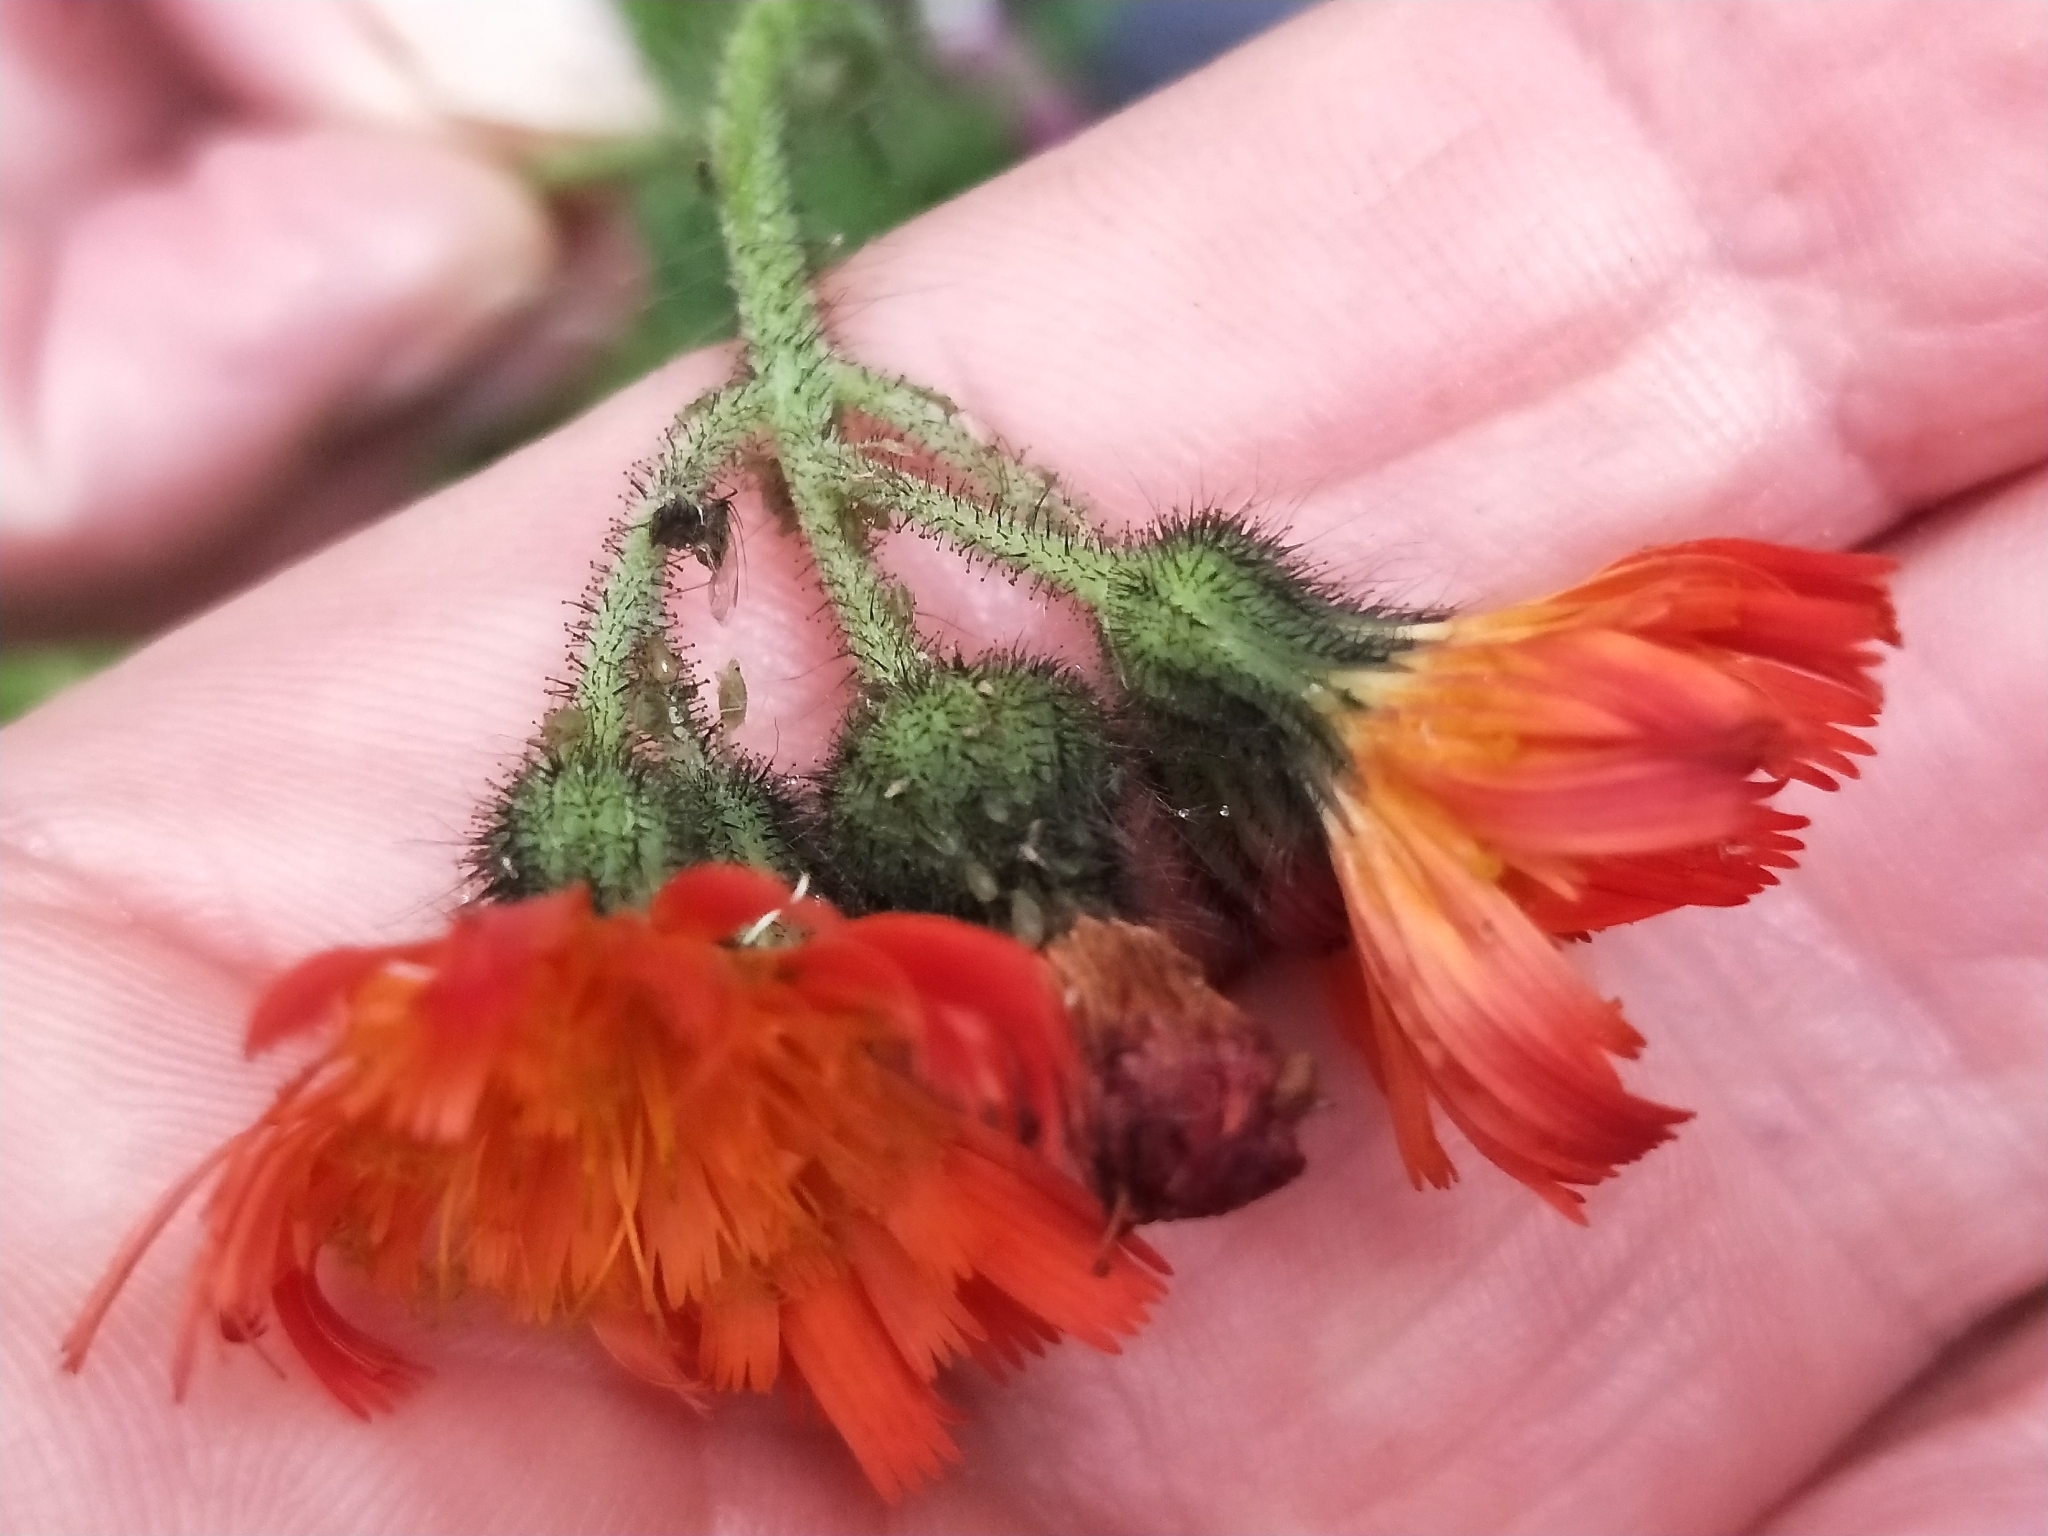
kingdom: Plantae
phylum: Tracheophyta
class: Magnoliopsida
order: Asterales
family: Asteraceae
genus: Pilosella
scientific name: Pilosella aurantiaca
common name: Fox-and-cubs
